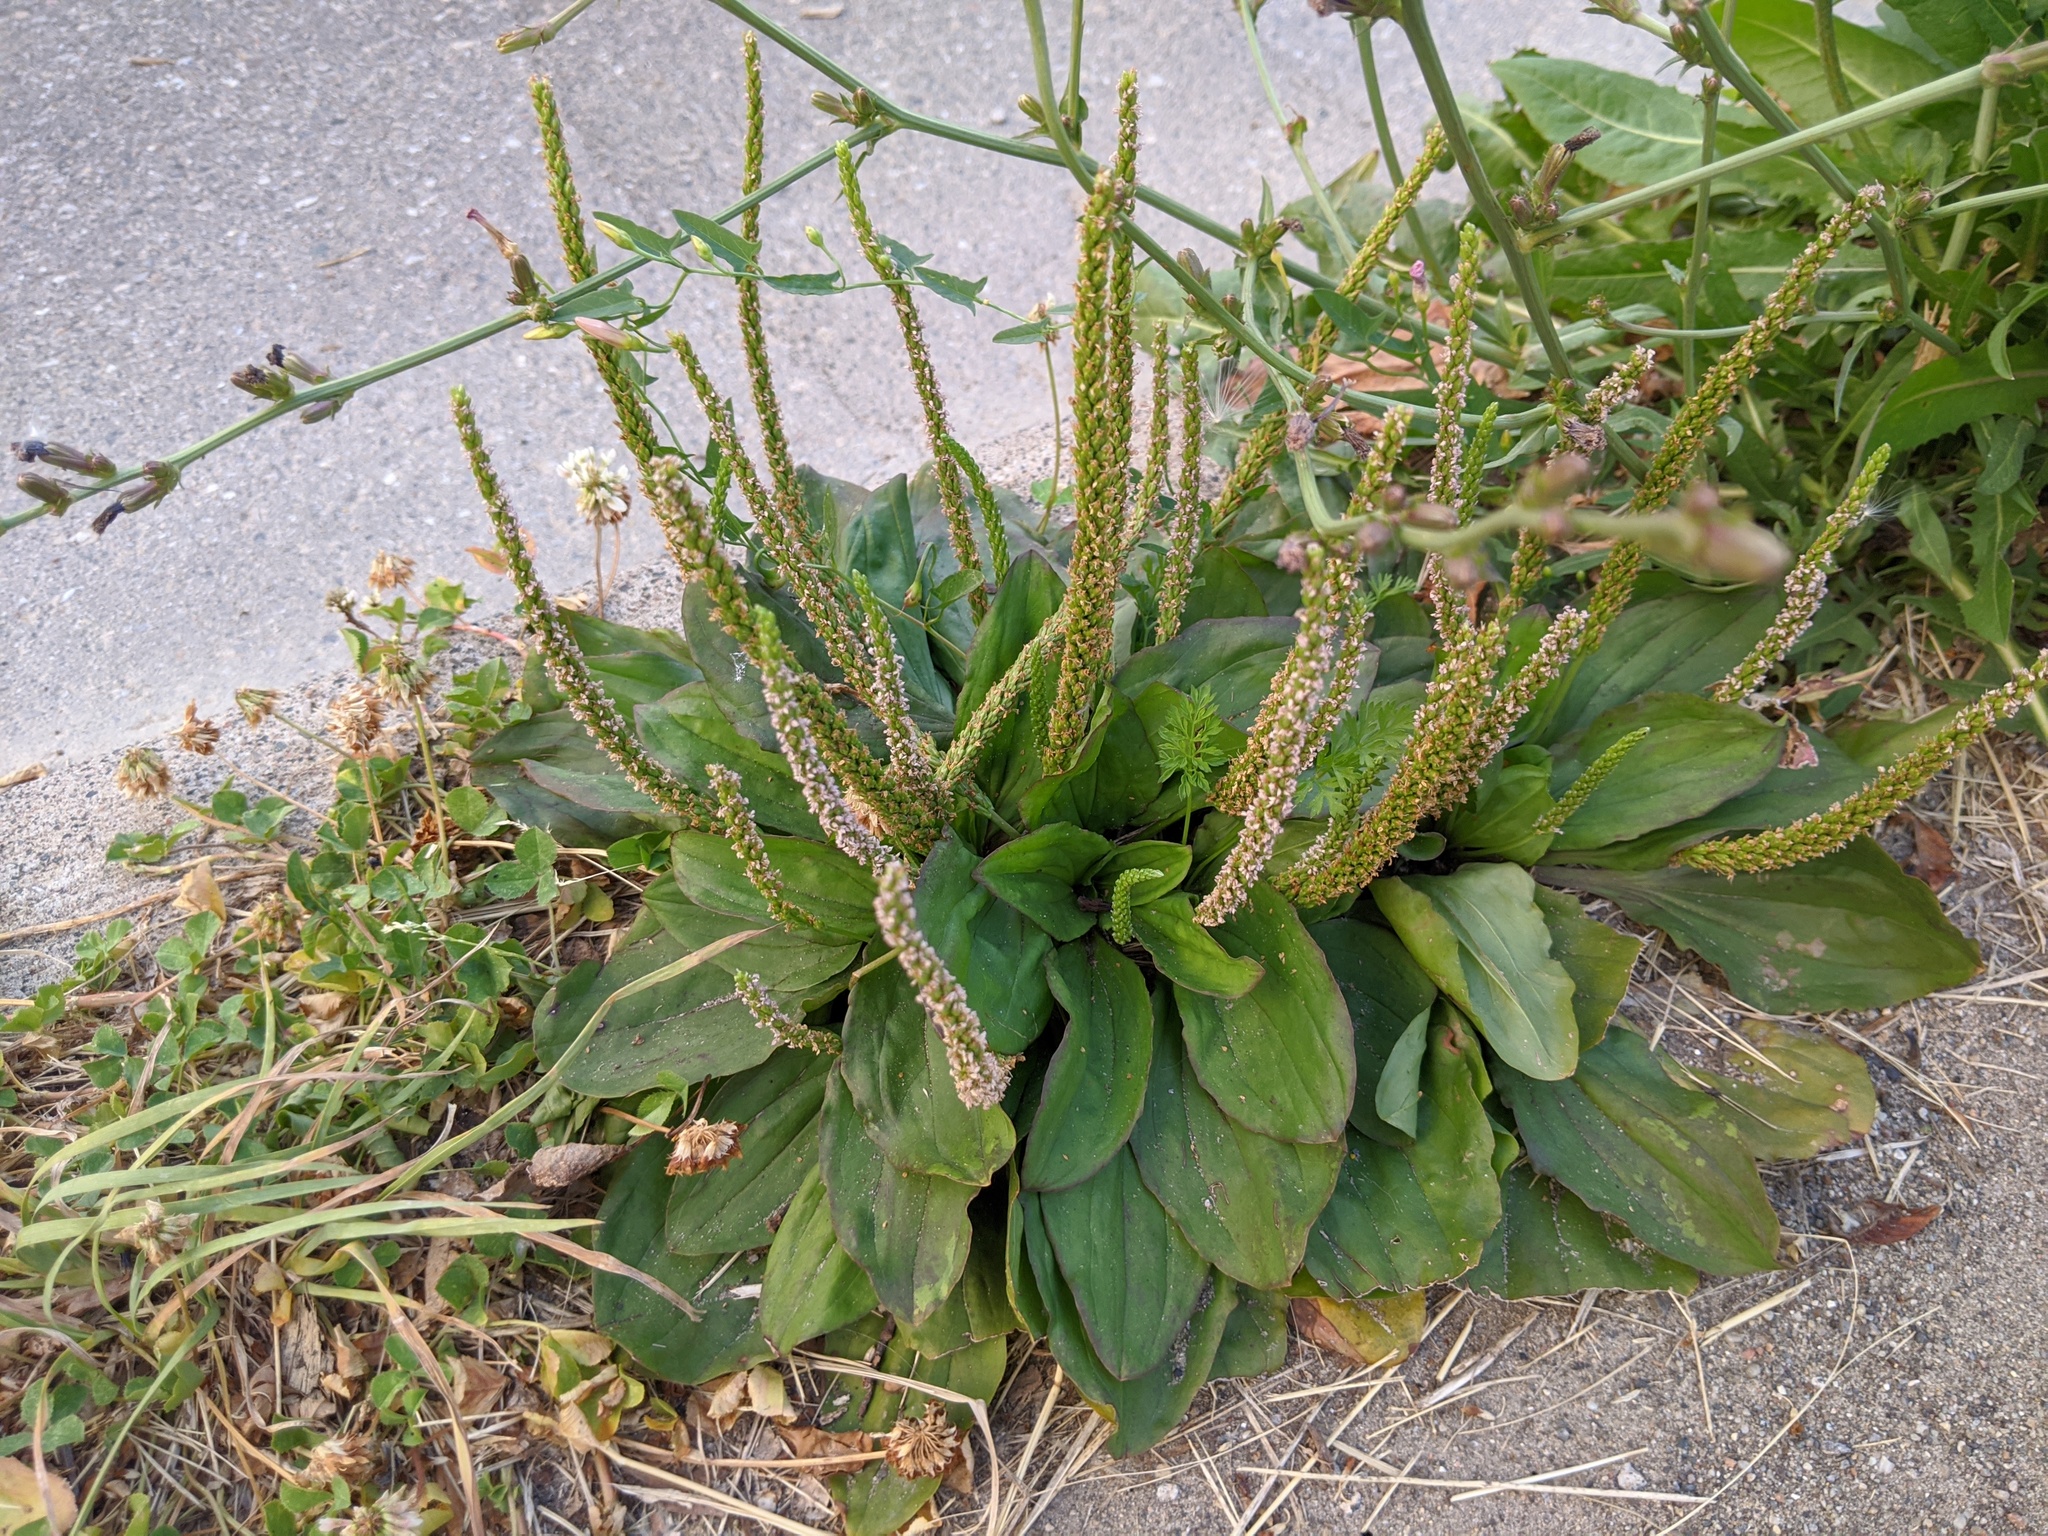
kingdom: Plantae
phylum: Tracheophyta
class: Magnoliopsida
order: Lamiales
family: Plantaginaceae
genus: Plantago
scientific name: Plantago major
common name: Common plantain
